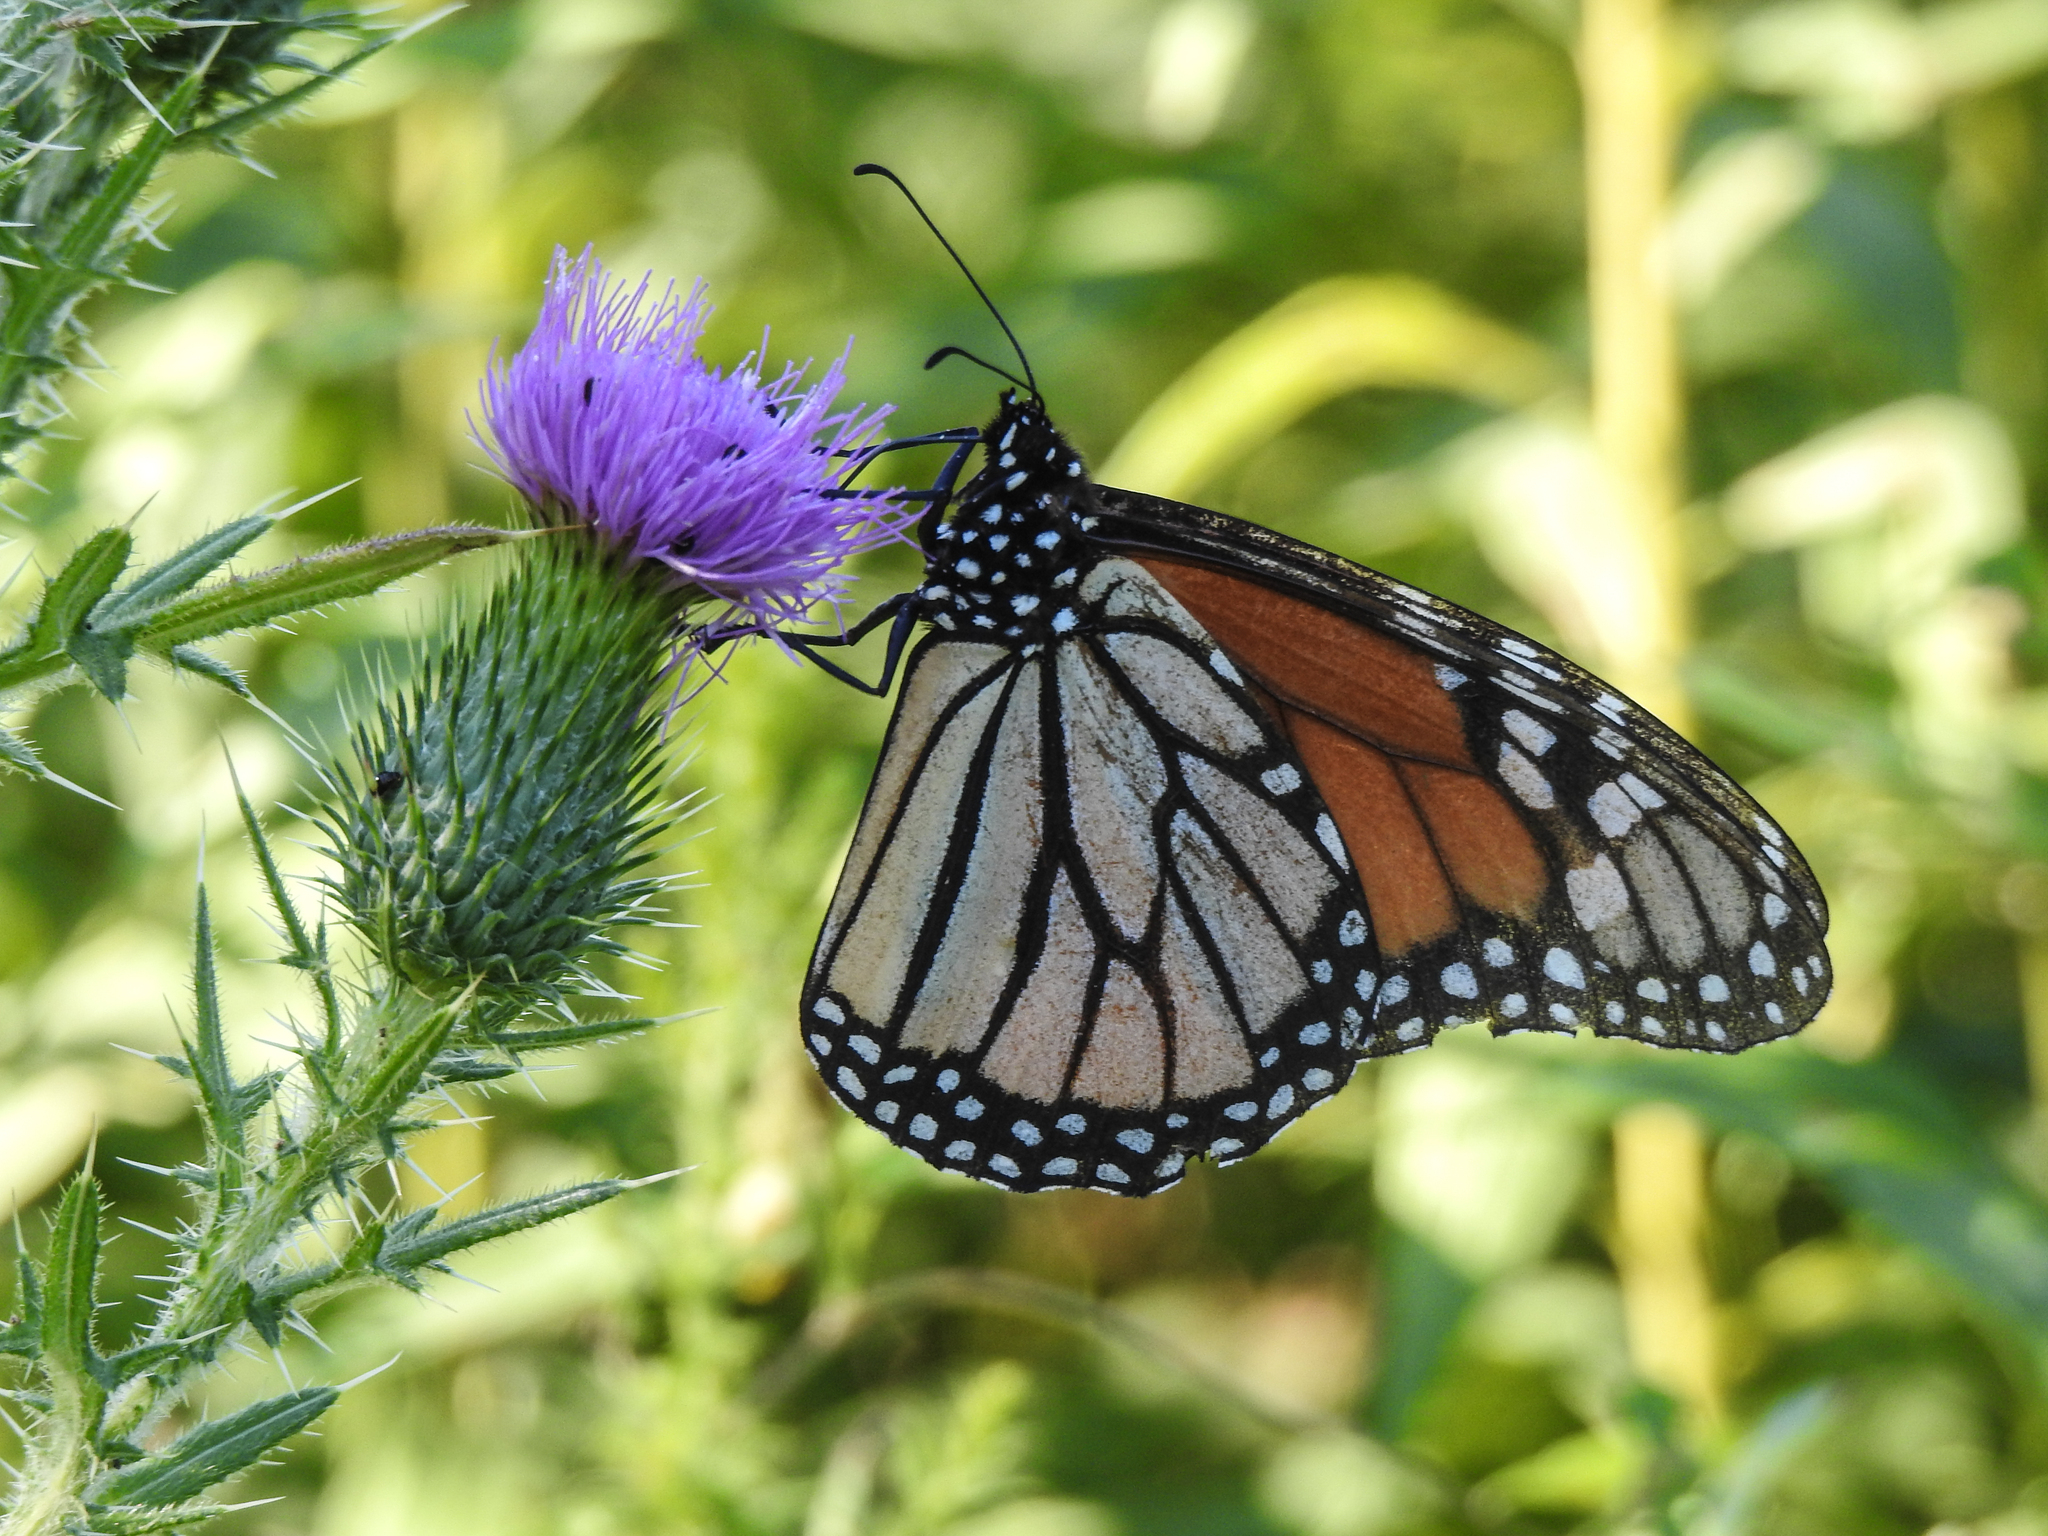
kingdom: Animalia
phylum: Arthropoda
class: Insecta
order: Lepidoptera
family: Nymphalidae
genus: Danaus
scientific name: Danaus plexippus
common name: Monarch
